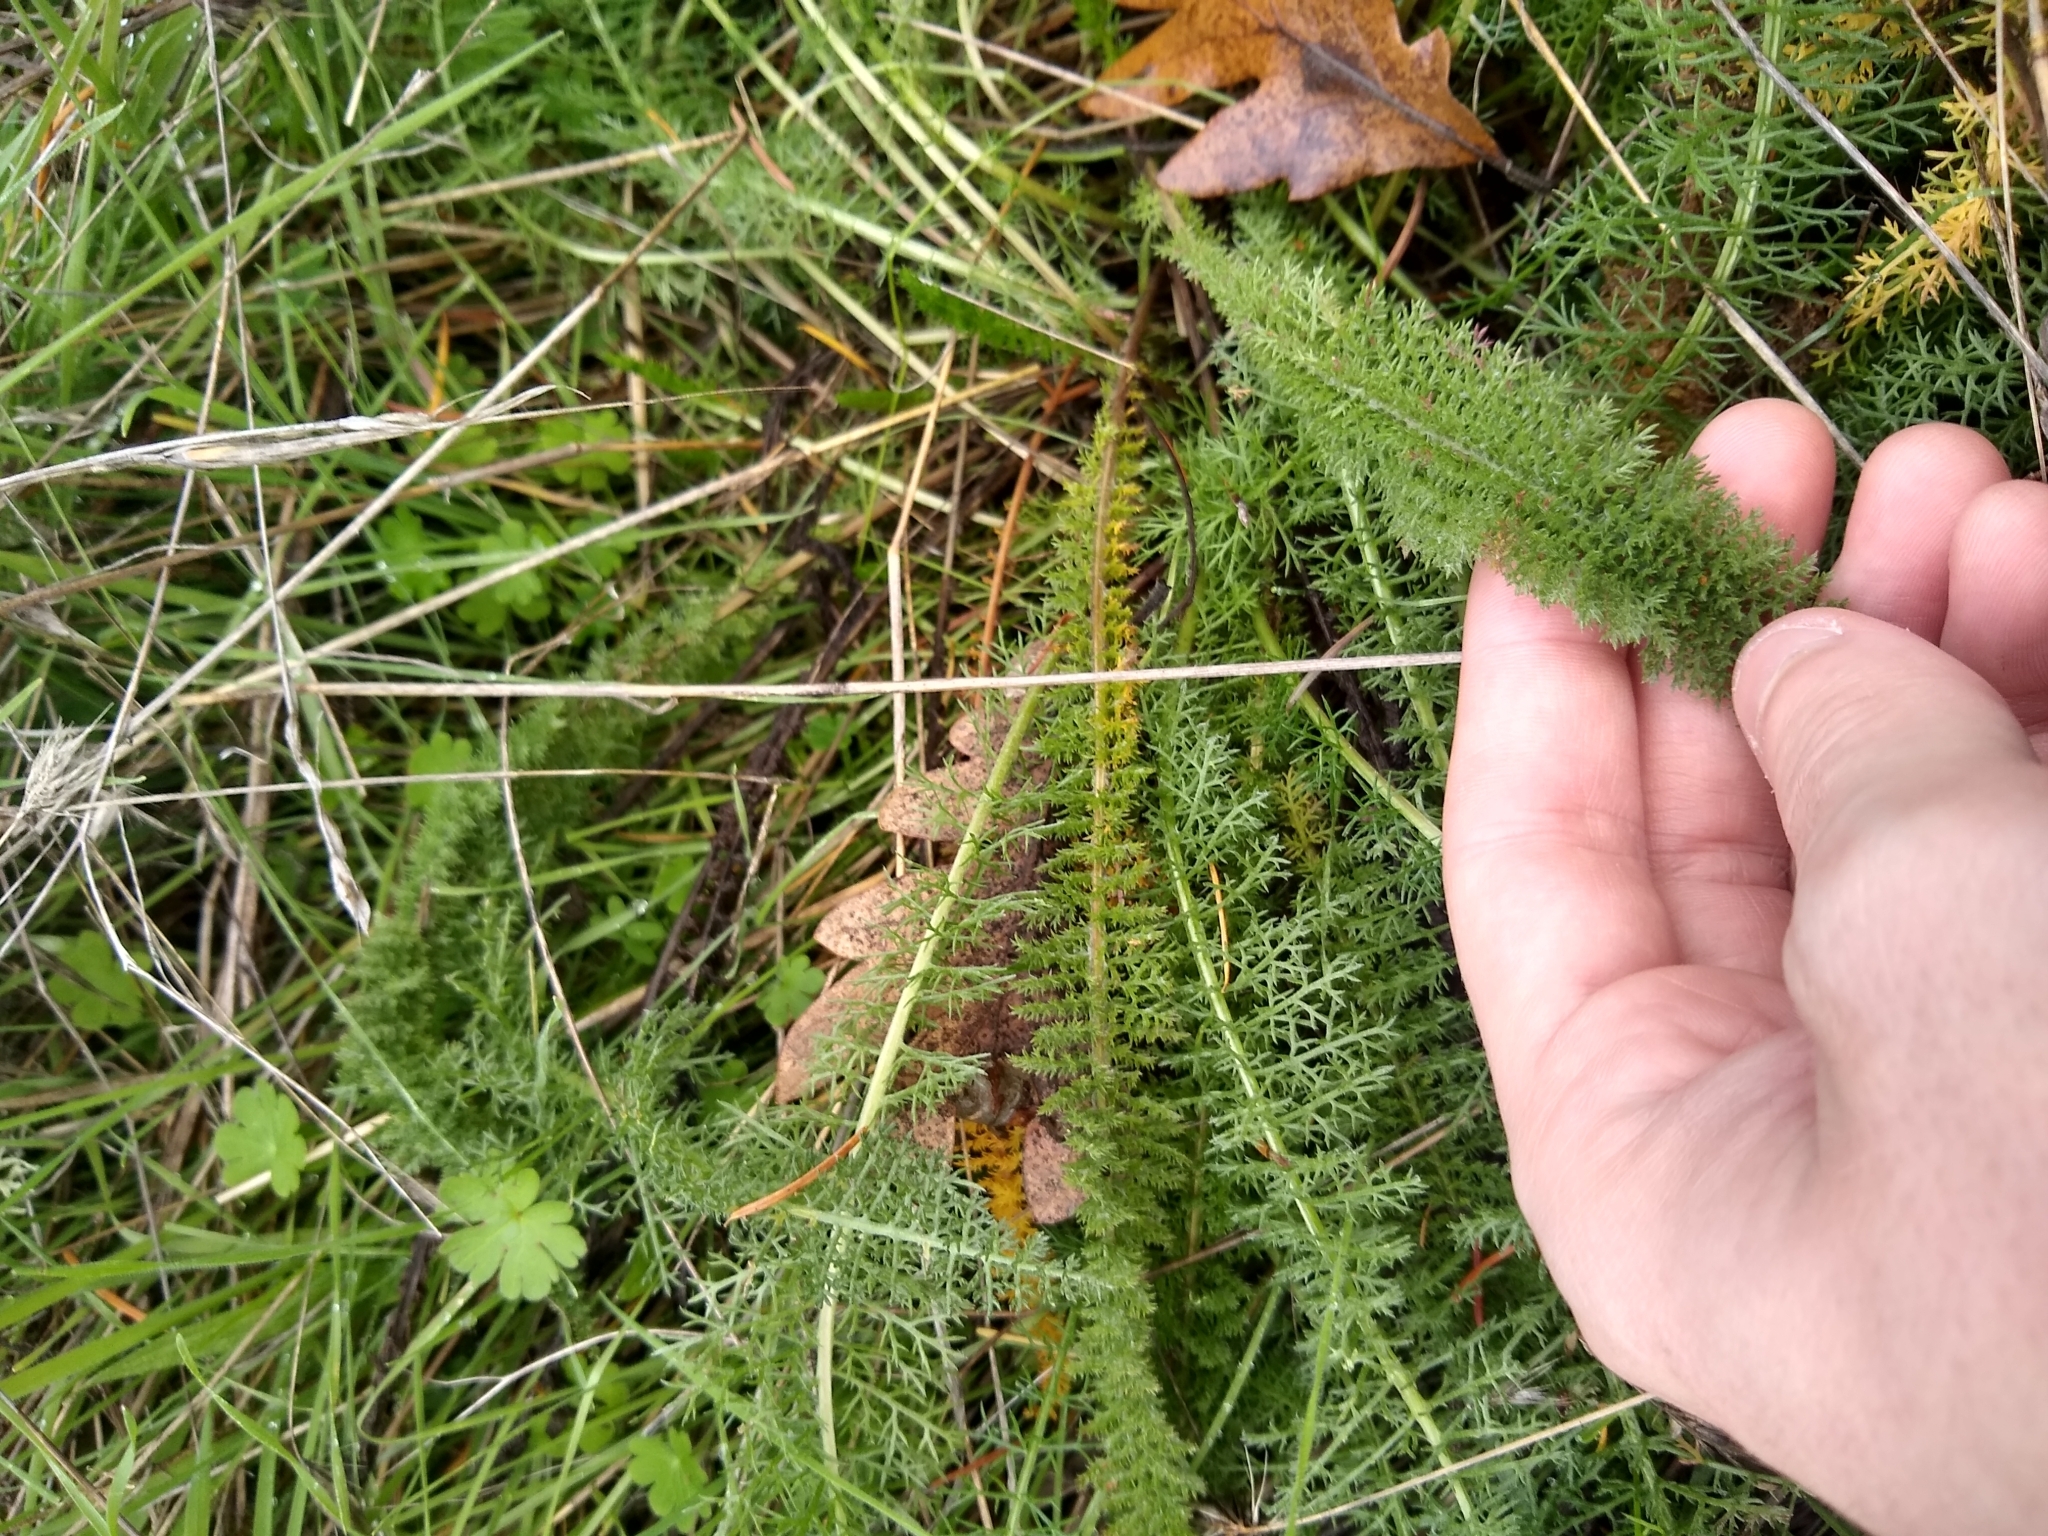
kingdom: Plantae
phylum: Tracheophyta
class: Magnoliopsida
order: Asterales
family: Asteraceae
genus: Achillea
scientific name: Achillea millefolium
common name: Yarrow
